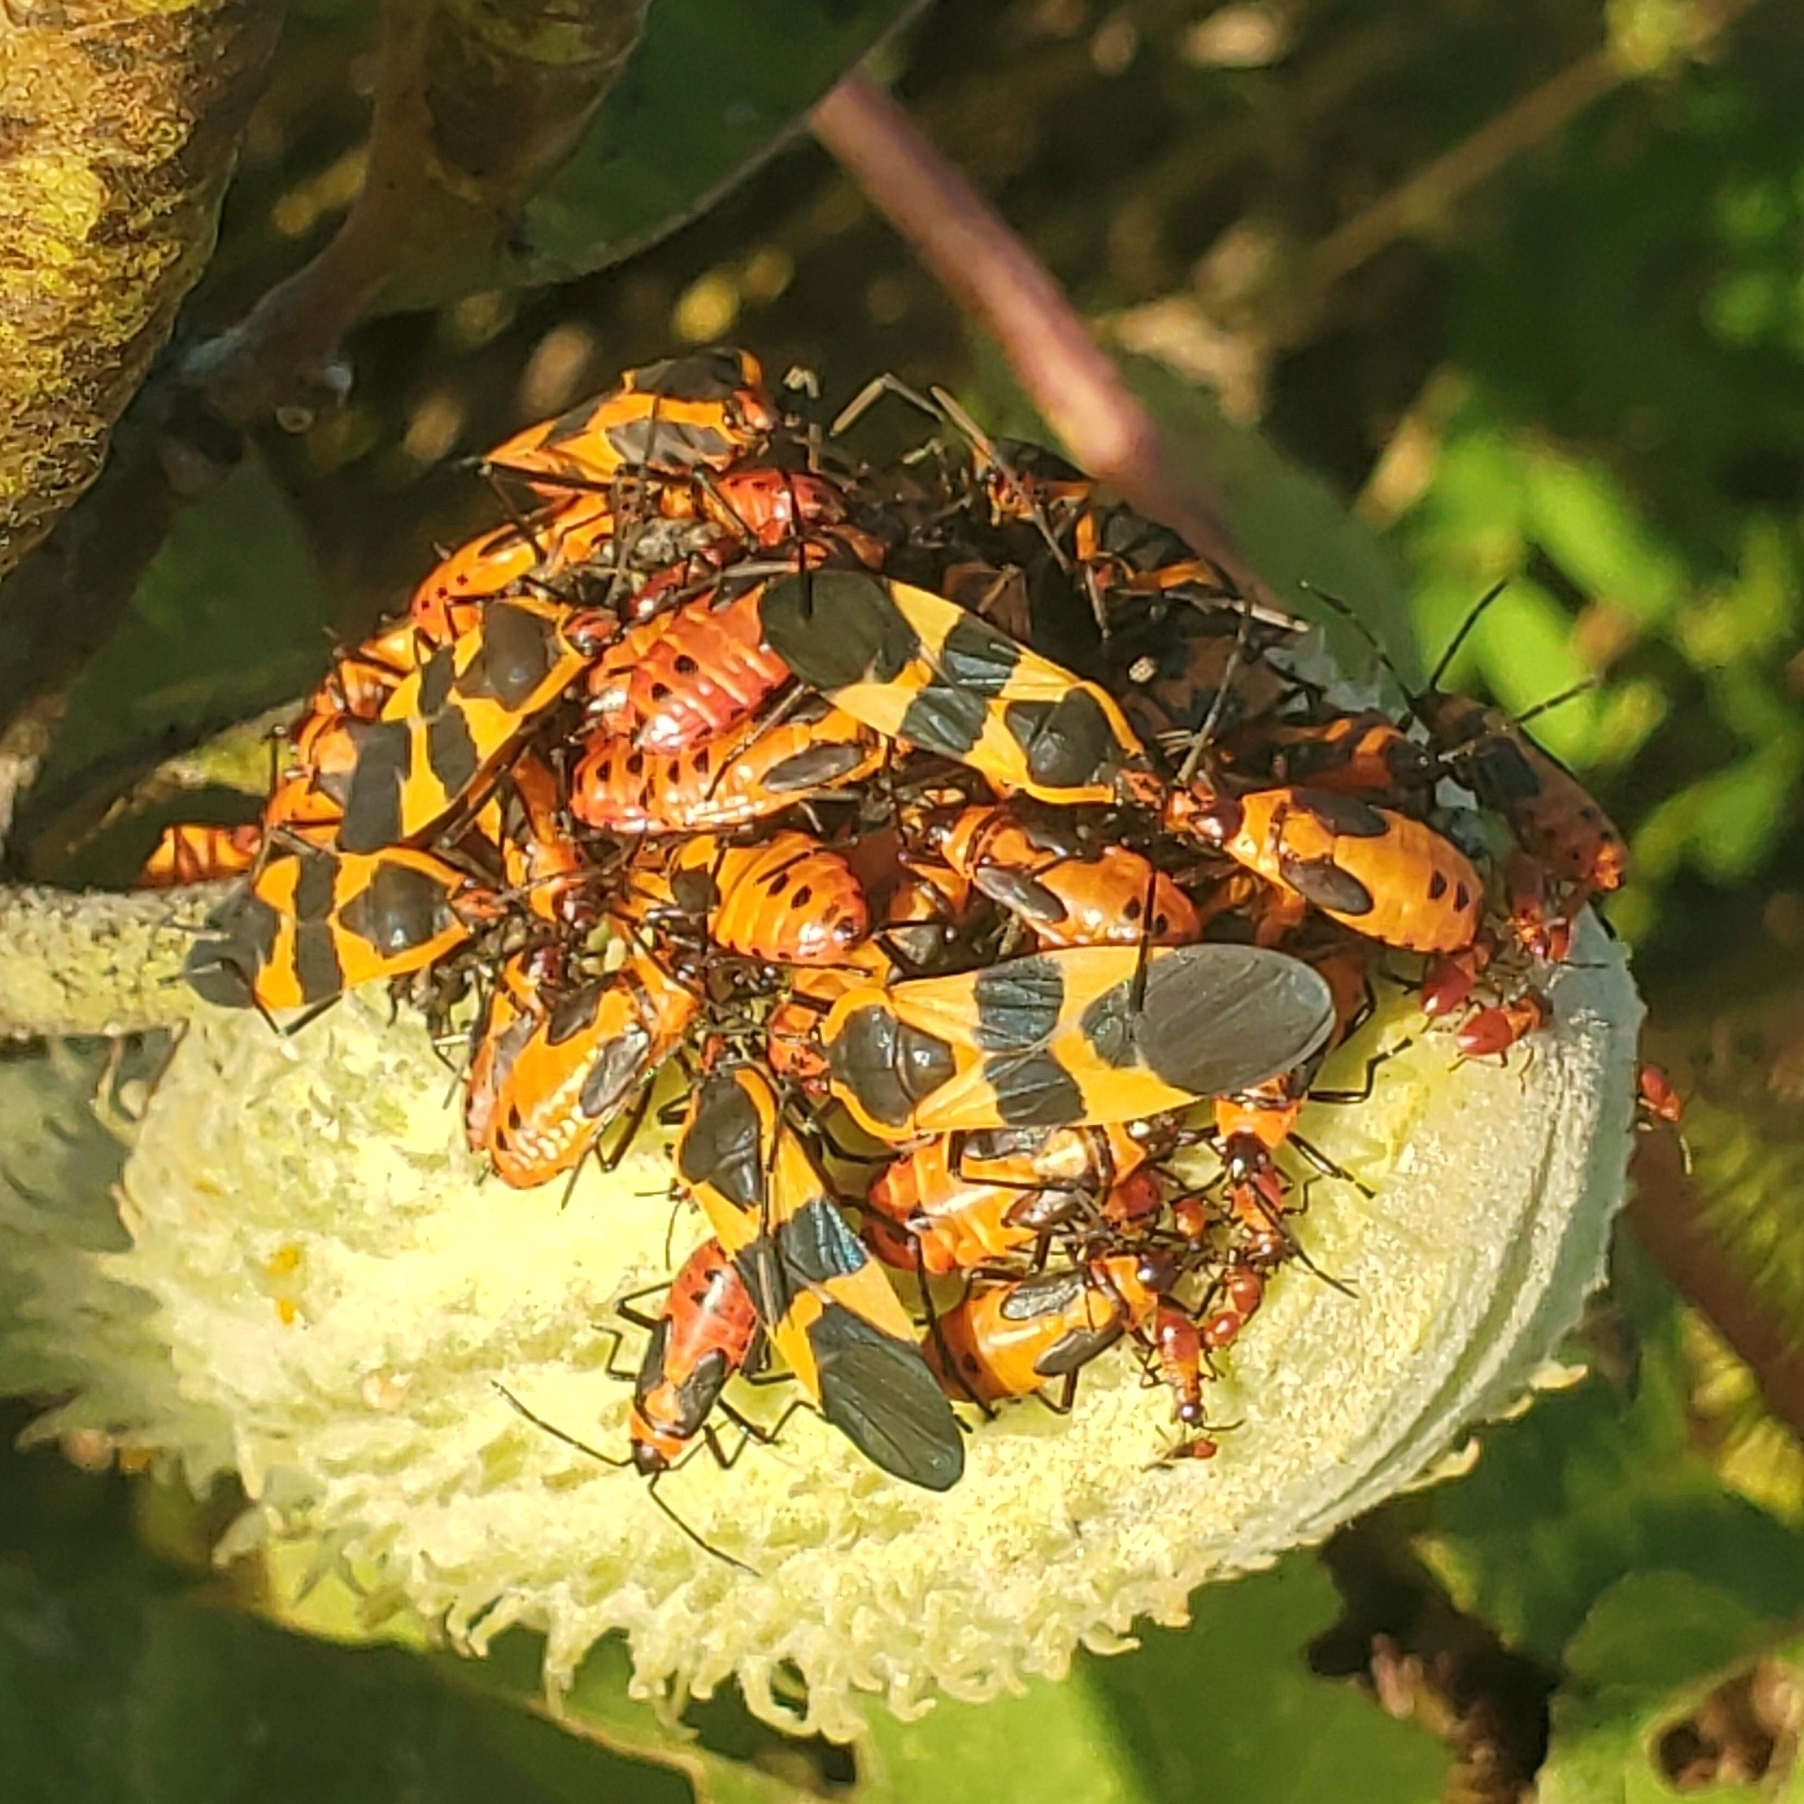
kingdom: Animalia
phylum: Arthropoda
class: Insecta
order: Hemiptera
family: Lygaeidae
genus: Oncopeltus
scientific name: Oncopeltus fasciatus
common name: Large milkweed bug
